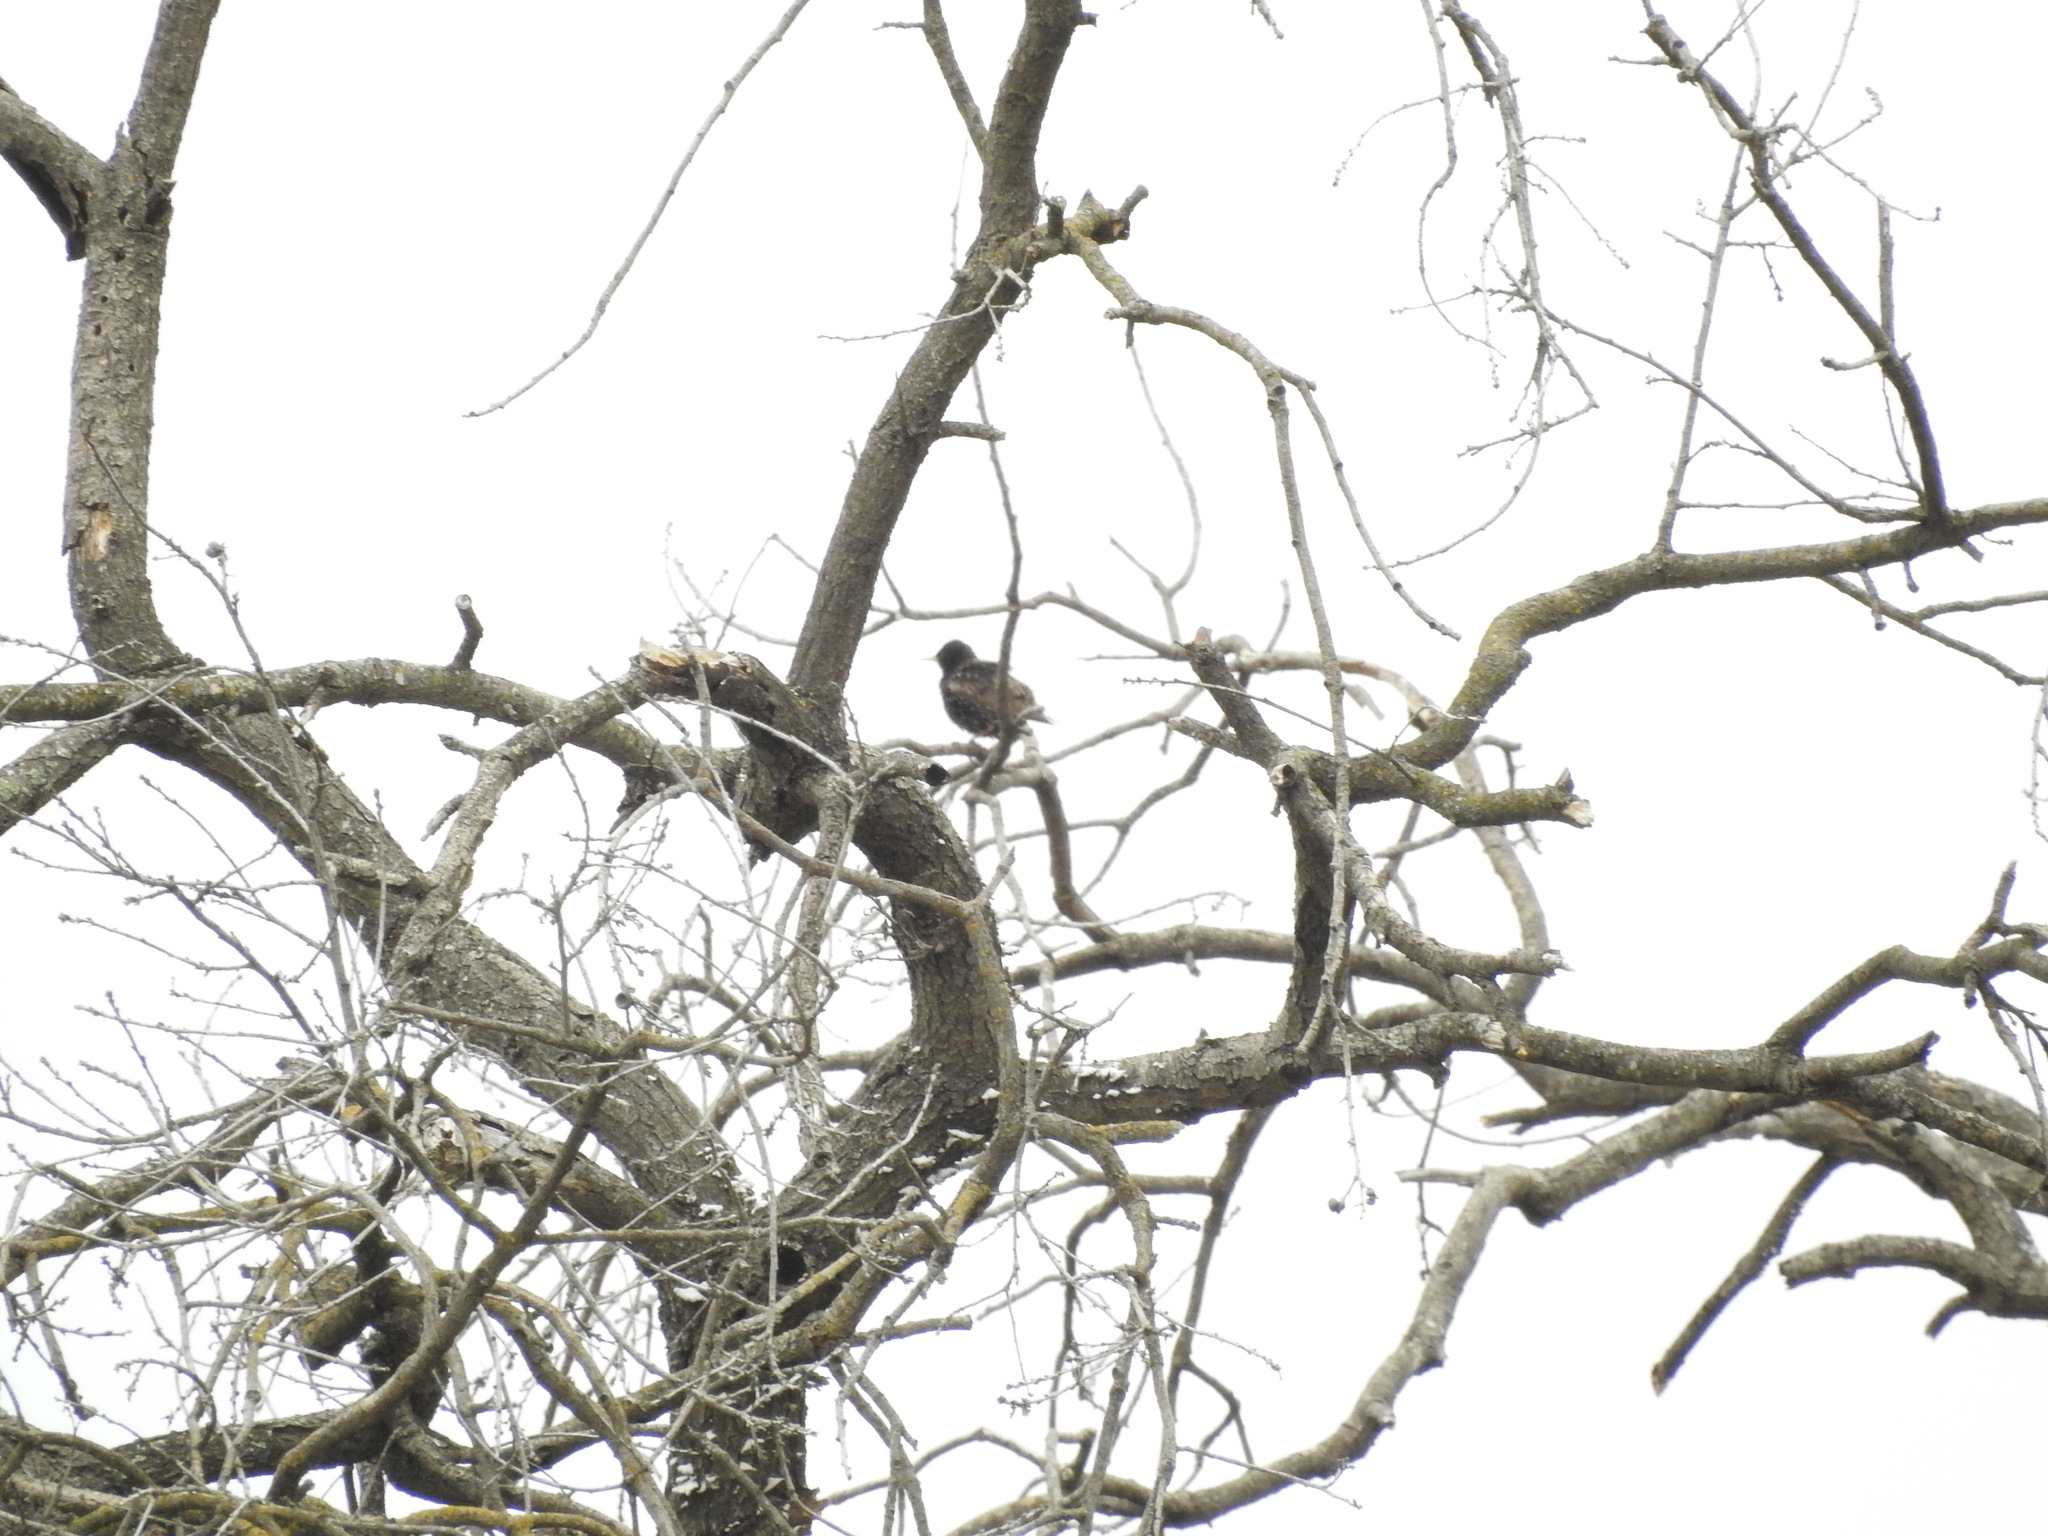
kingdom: Animalia
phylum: Chordata
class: Aves
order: Passeriformes
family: Sturnidae
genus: Sturnus
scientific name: Sturnus vulgaris
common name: Common starling
